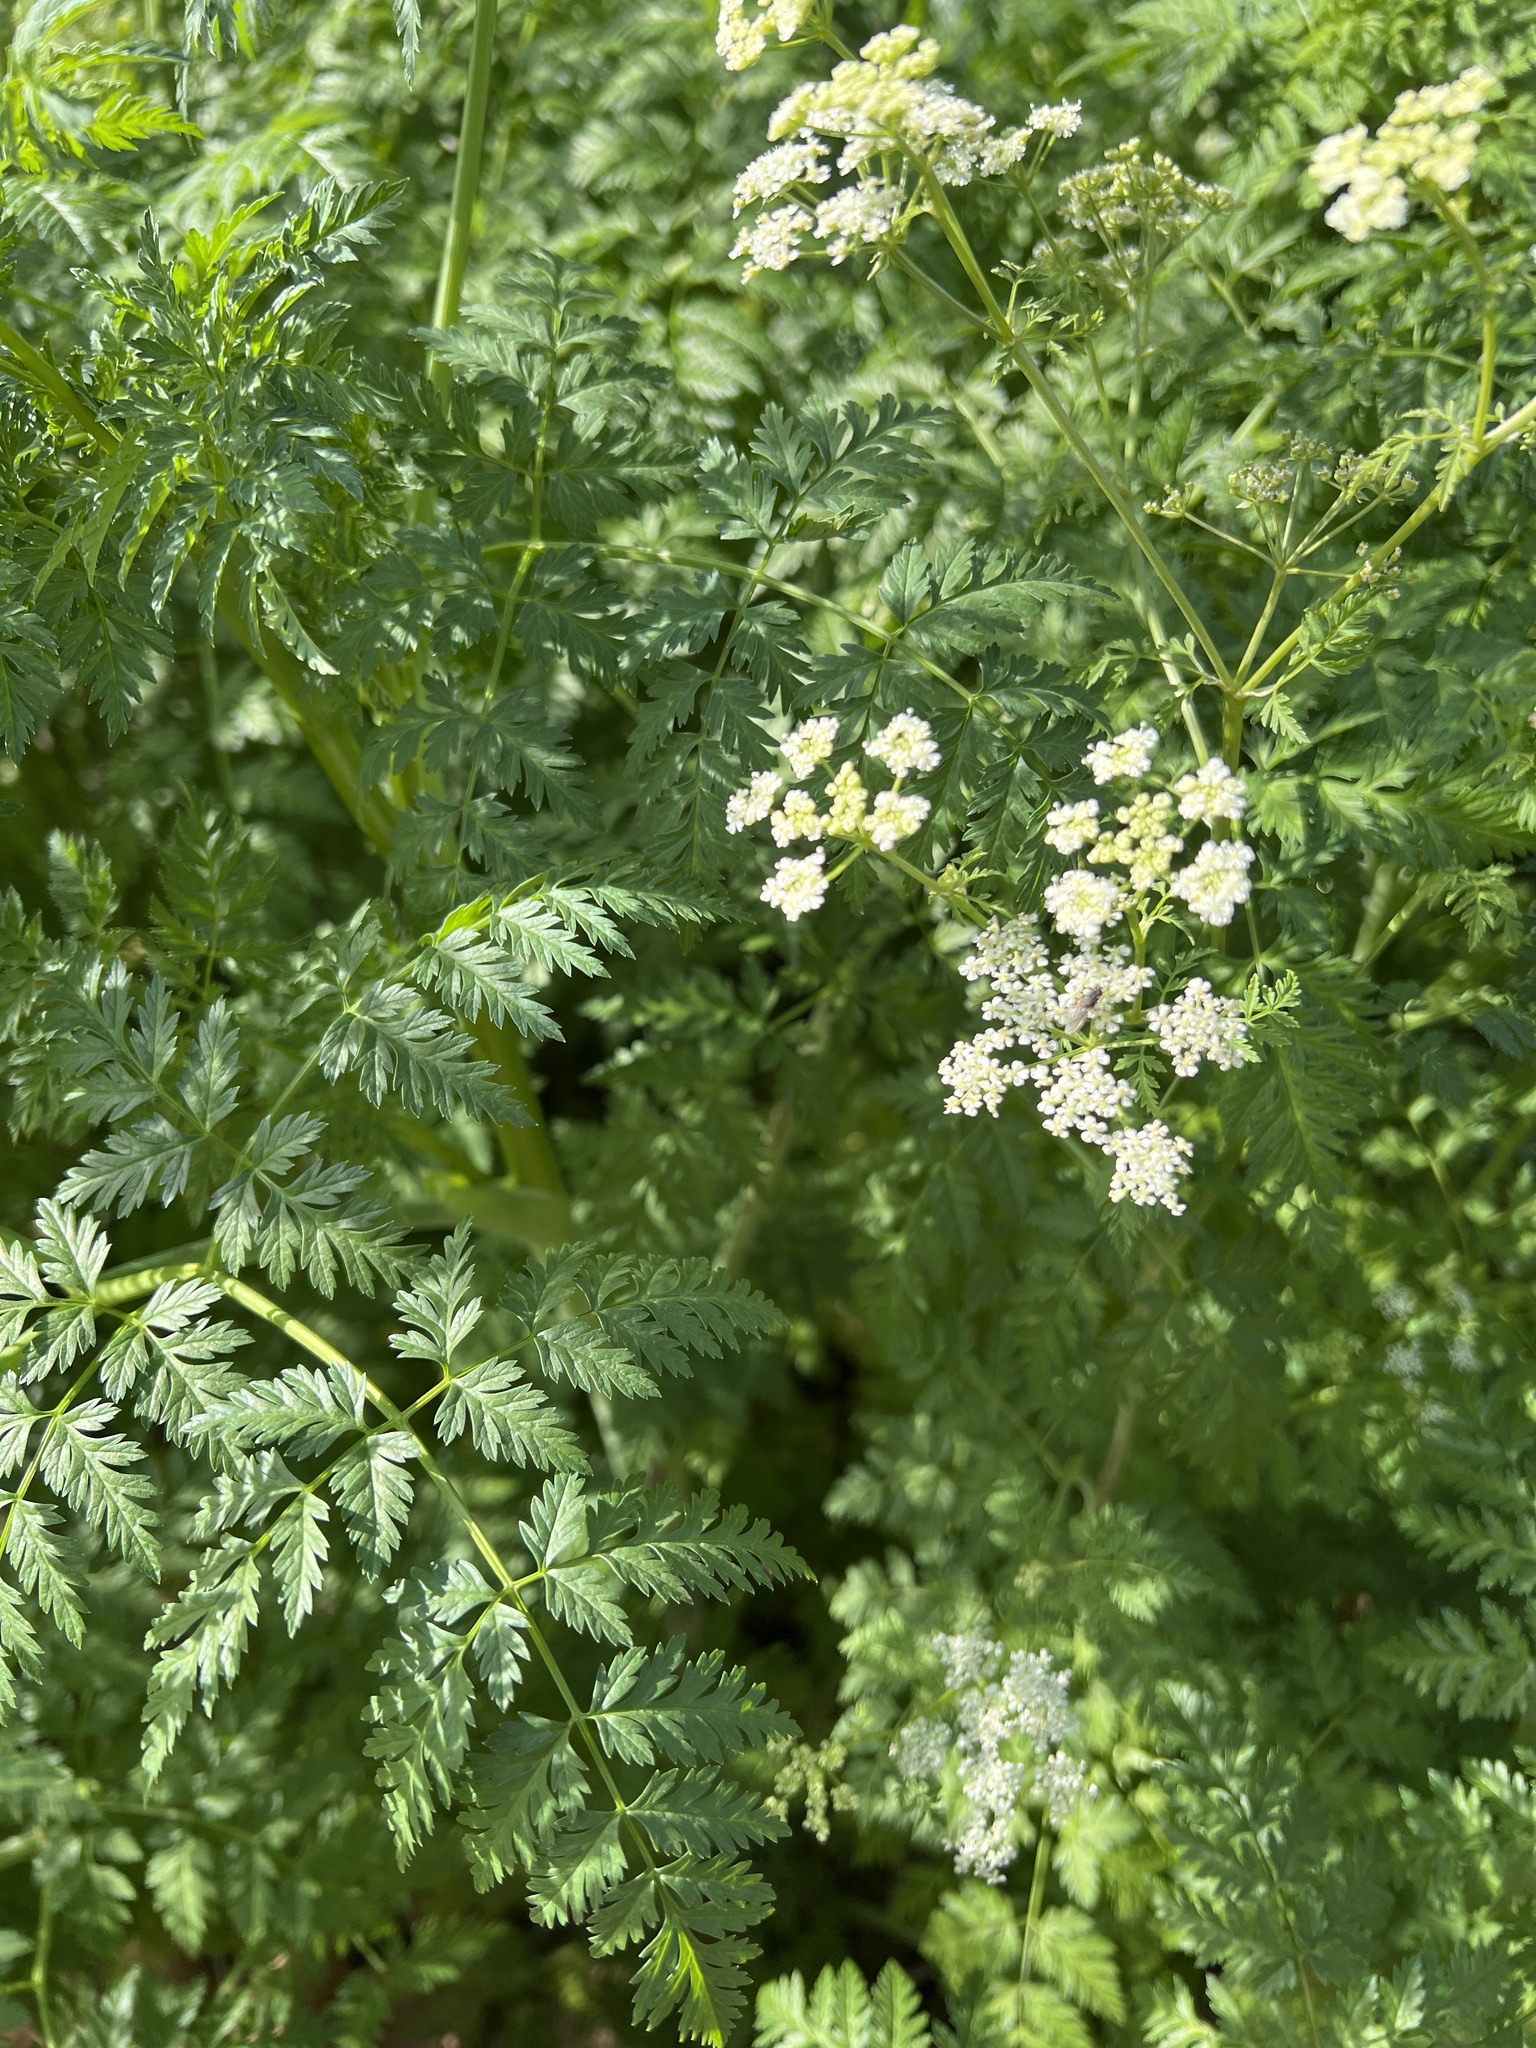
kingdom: Plantae
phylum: Tracheophyta
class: Magnoliopsida
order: Apiales
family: Apiaceae
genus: Conium
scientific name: Conium maculatum
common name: Hemlock
